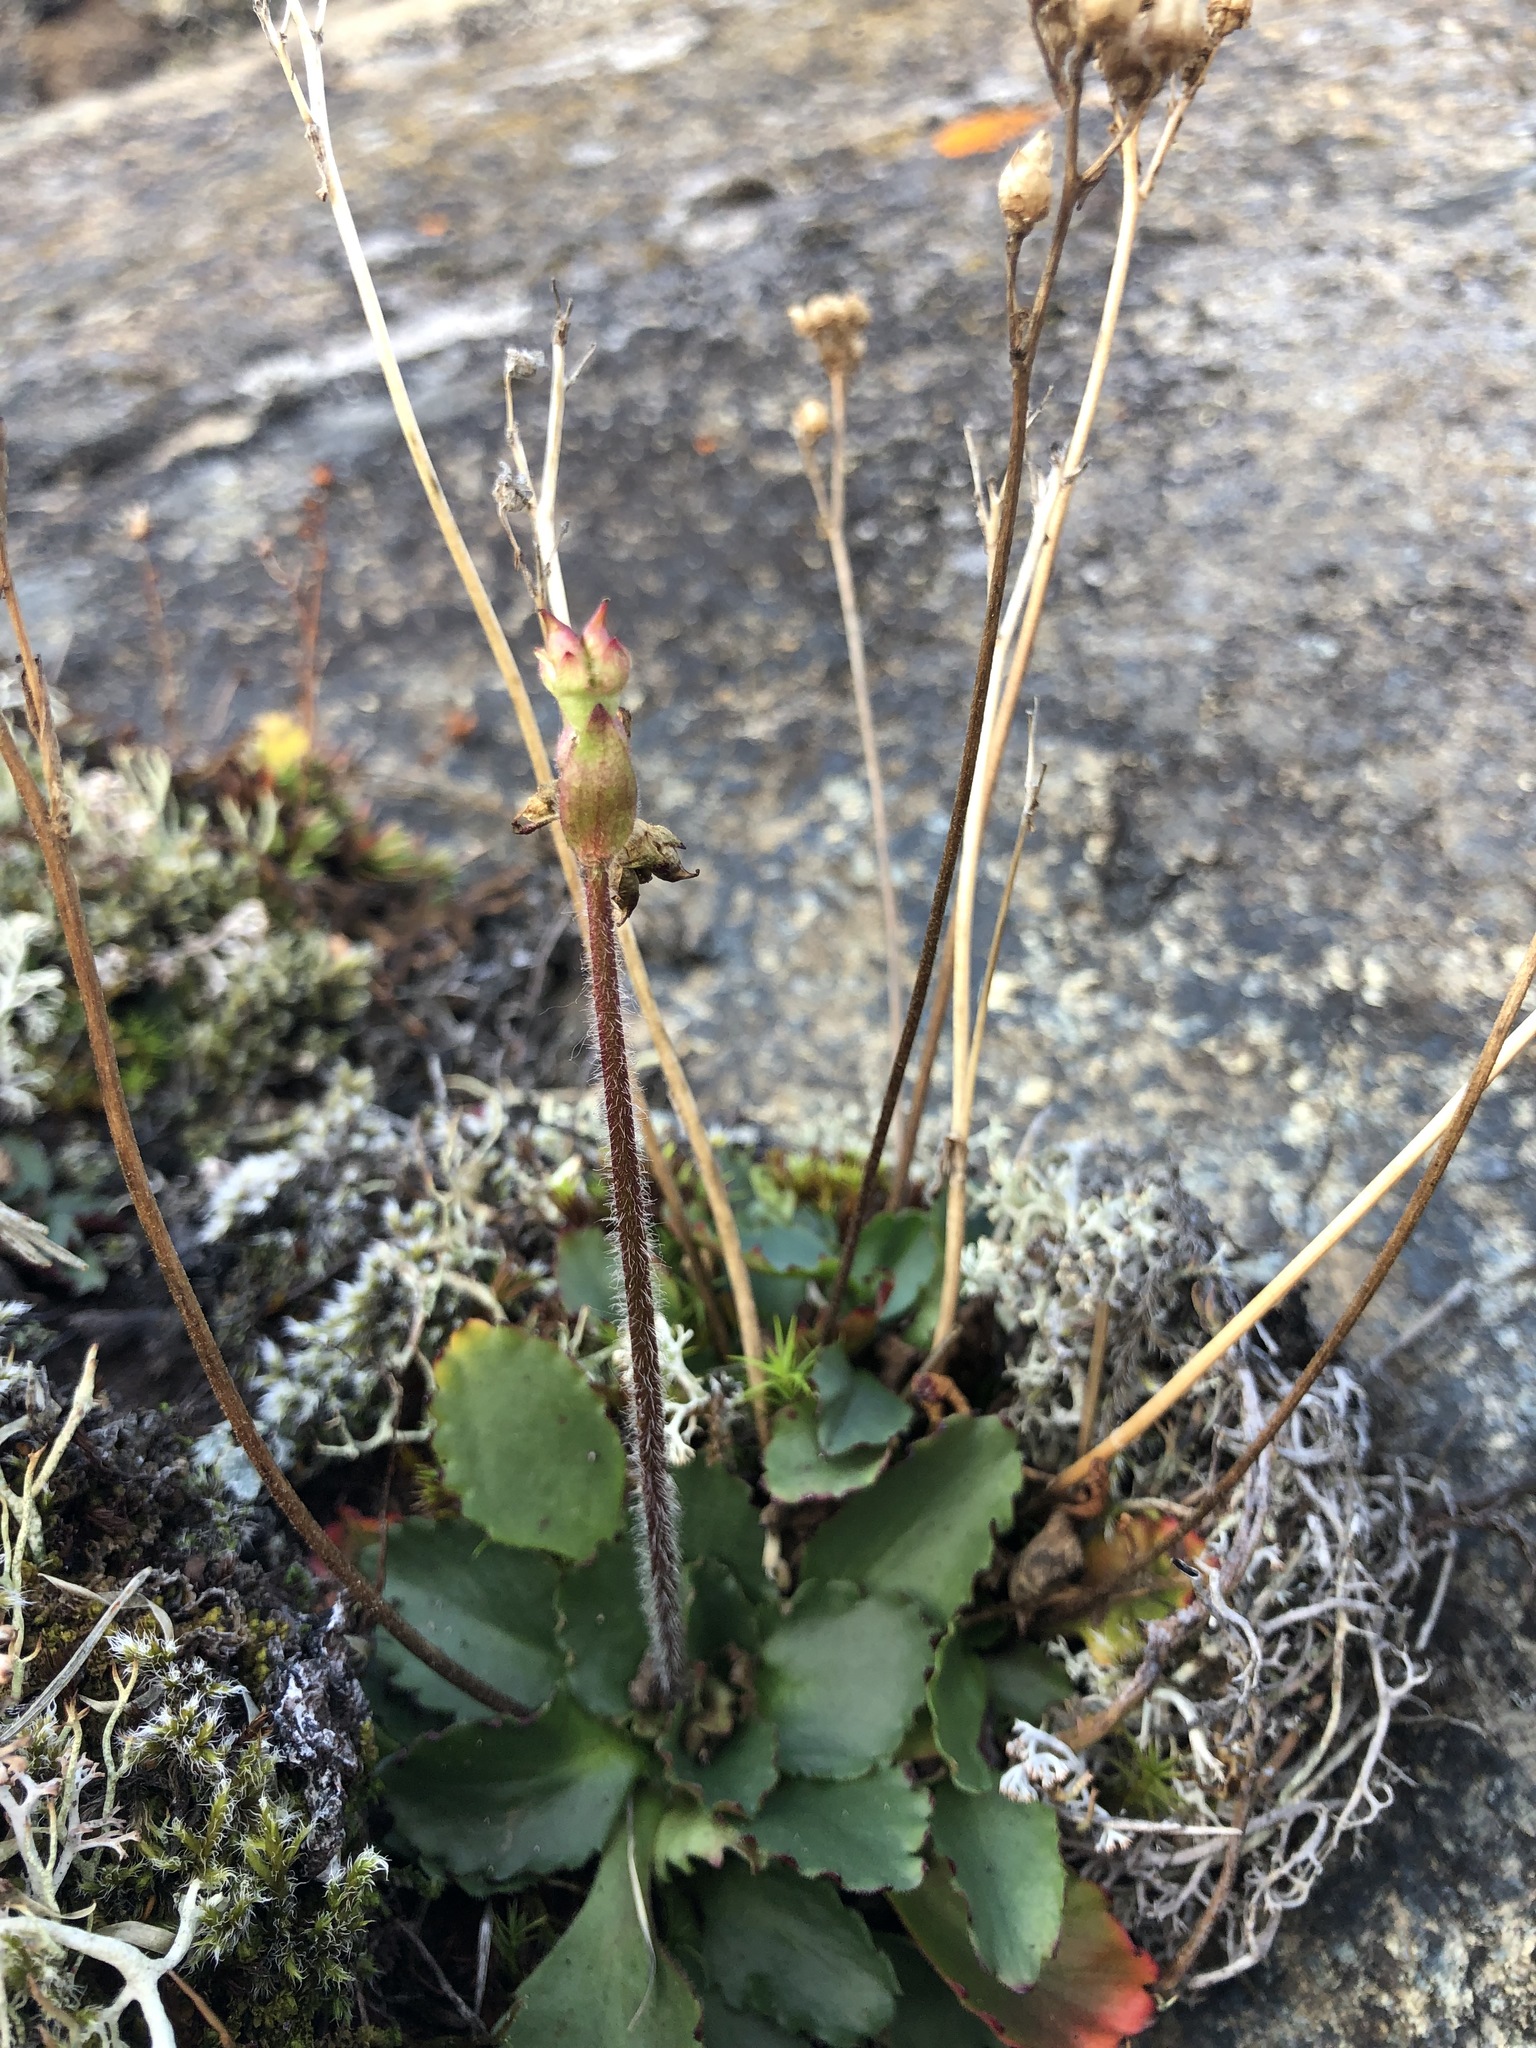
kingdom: Plantae
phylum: Tracheophyta
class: Magnoliopsida
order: Saxifragales
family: Saxifragaceae
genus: Micranthes
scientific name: Micranthes nivalis
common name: Alpine saxifrage
